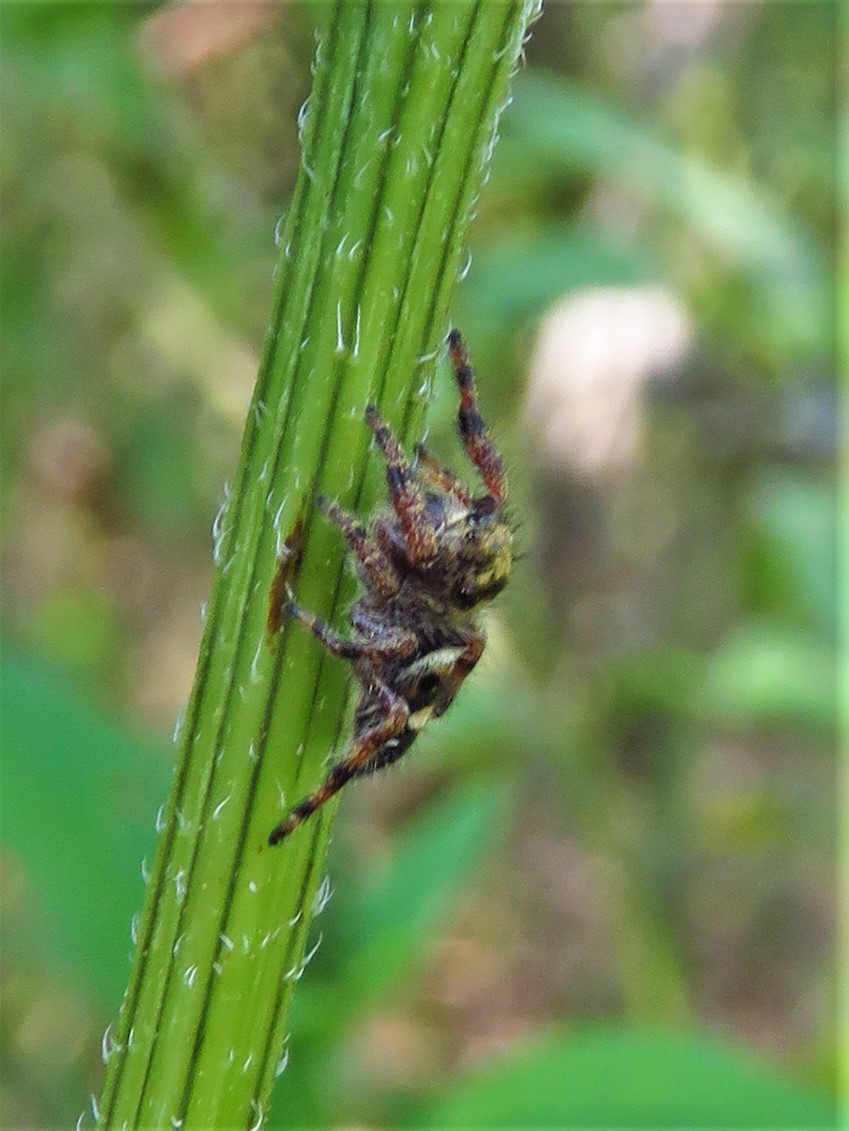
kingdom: Animalia
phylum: Arthropoda
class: Arachnida
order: Araneae
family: Salticidae
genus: Phidippus
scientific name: Phidippus audax
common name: Bold jumper
